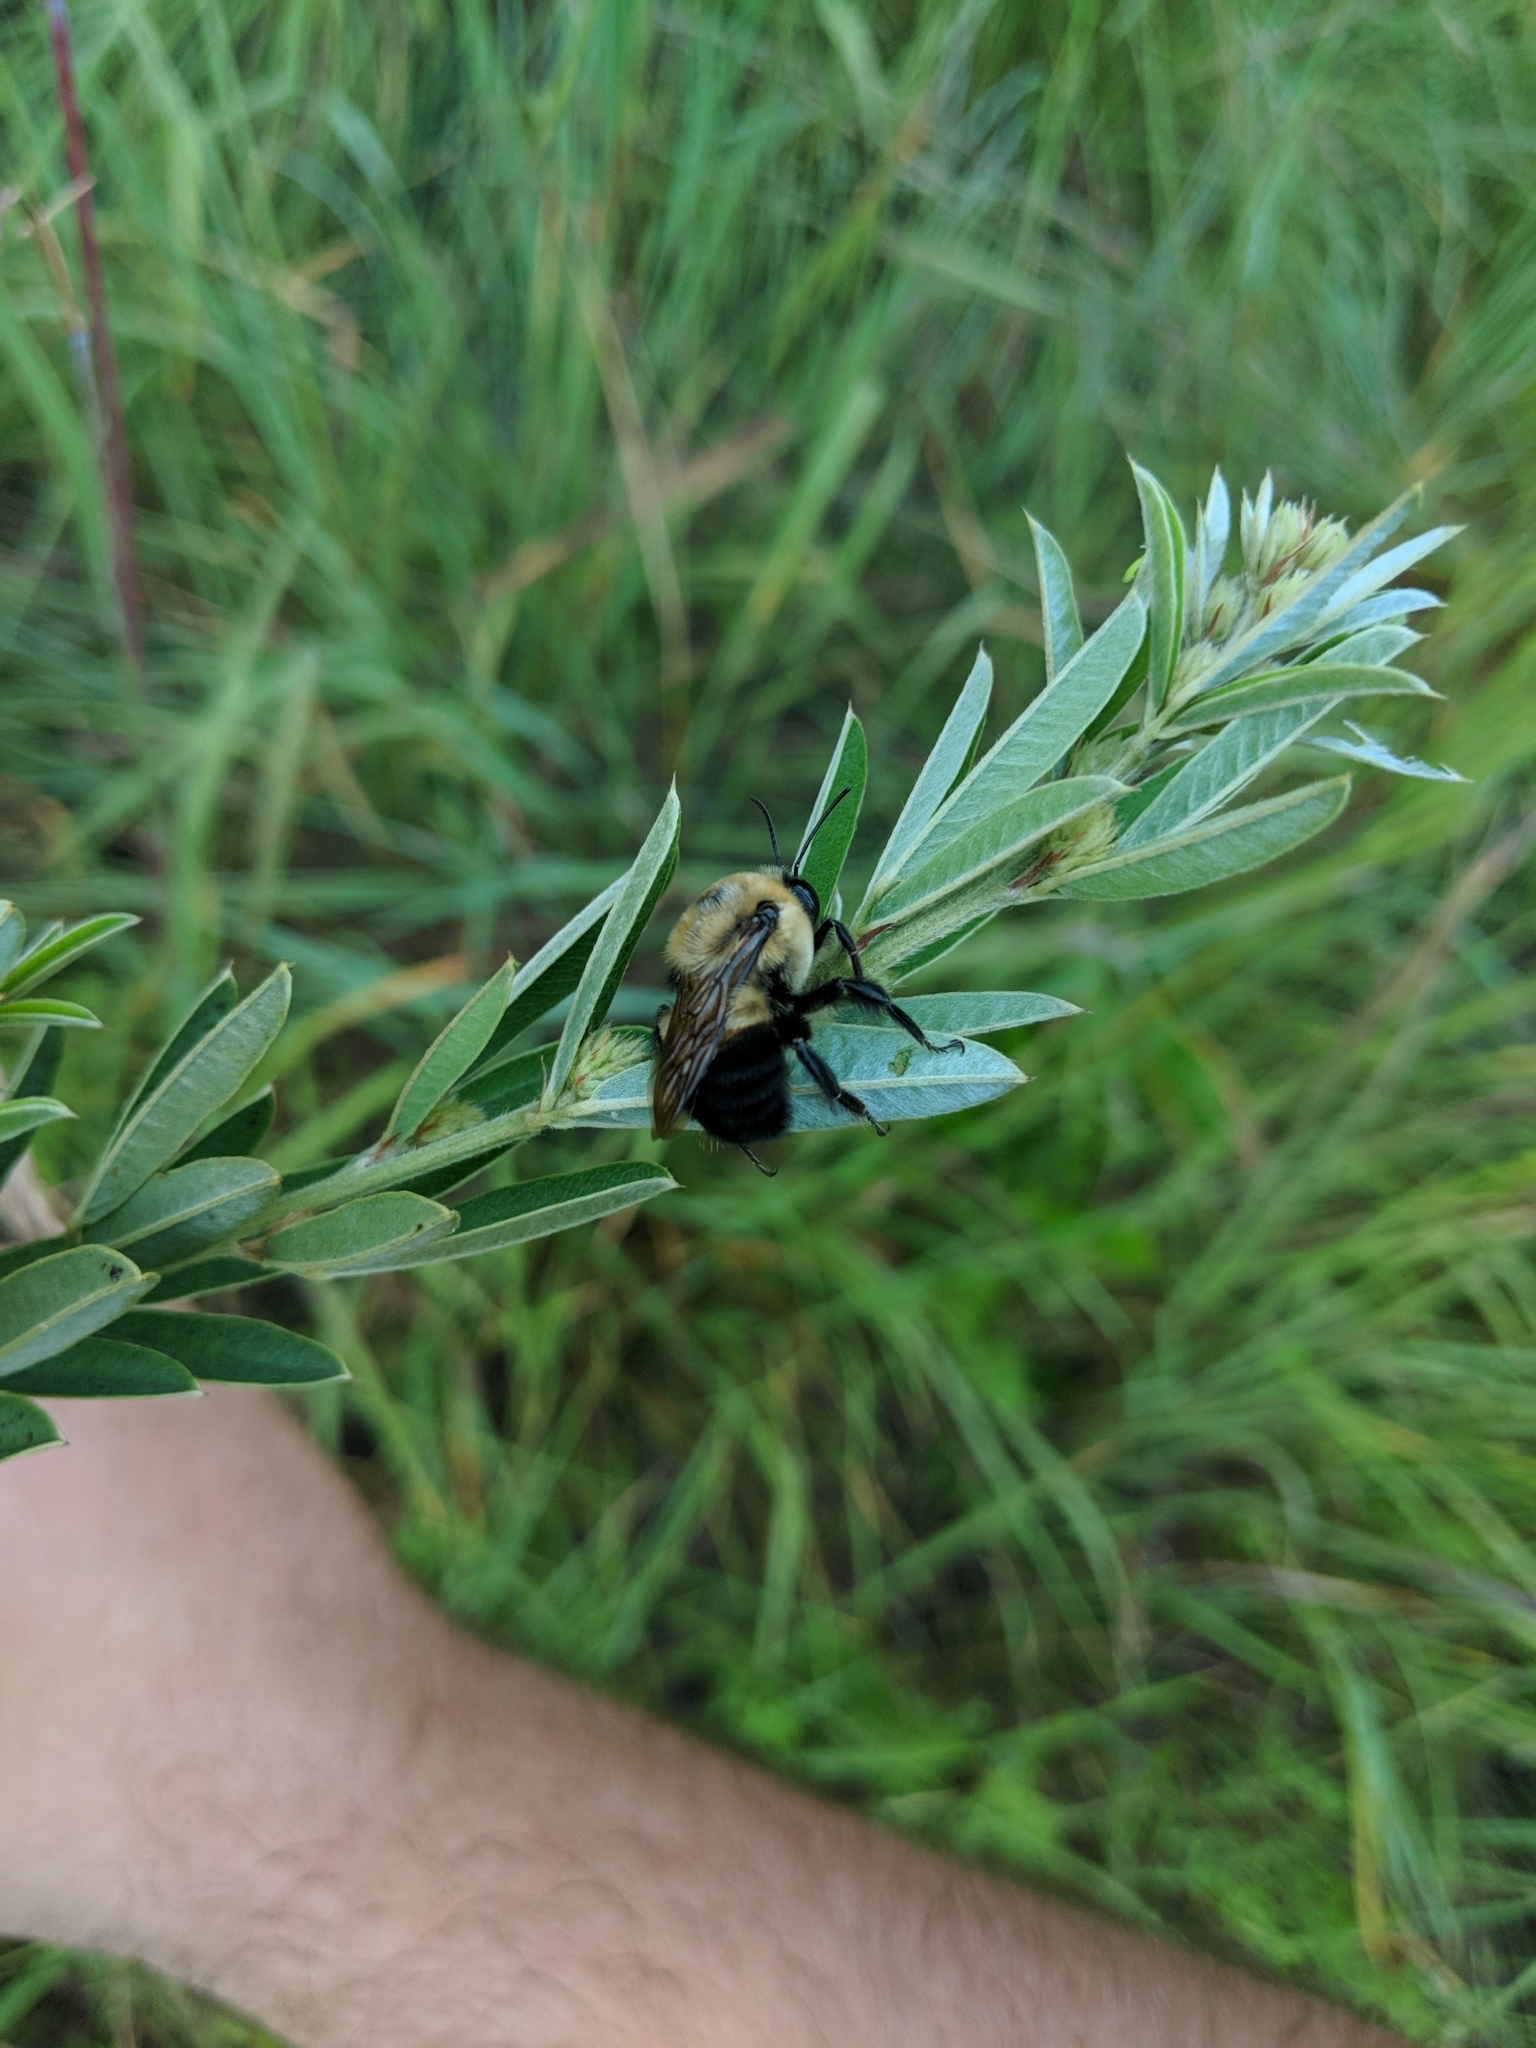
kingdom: Animalia
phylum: Arthropoda
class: Insecta
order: Hymenoptera
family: Apidae
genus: Bombus
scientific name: Bombus griseocollis
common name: Brown-belted bumble bee
